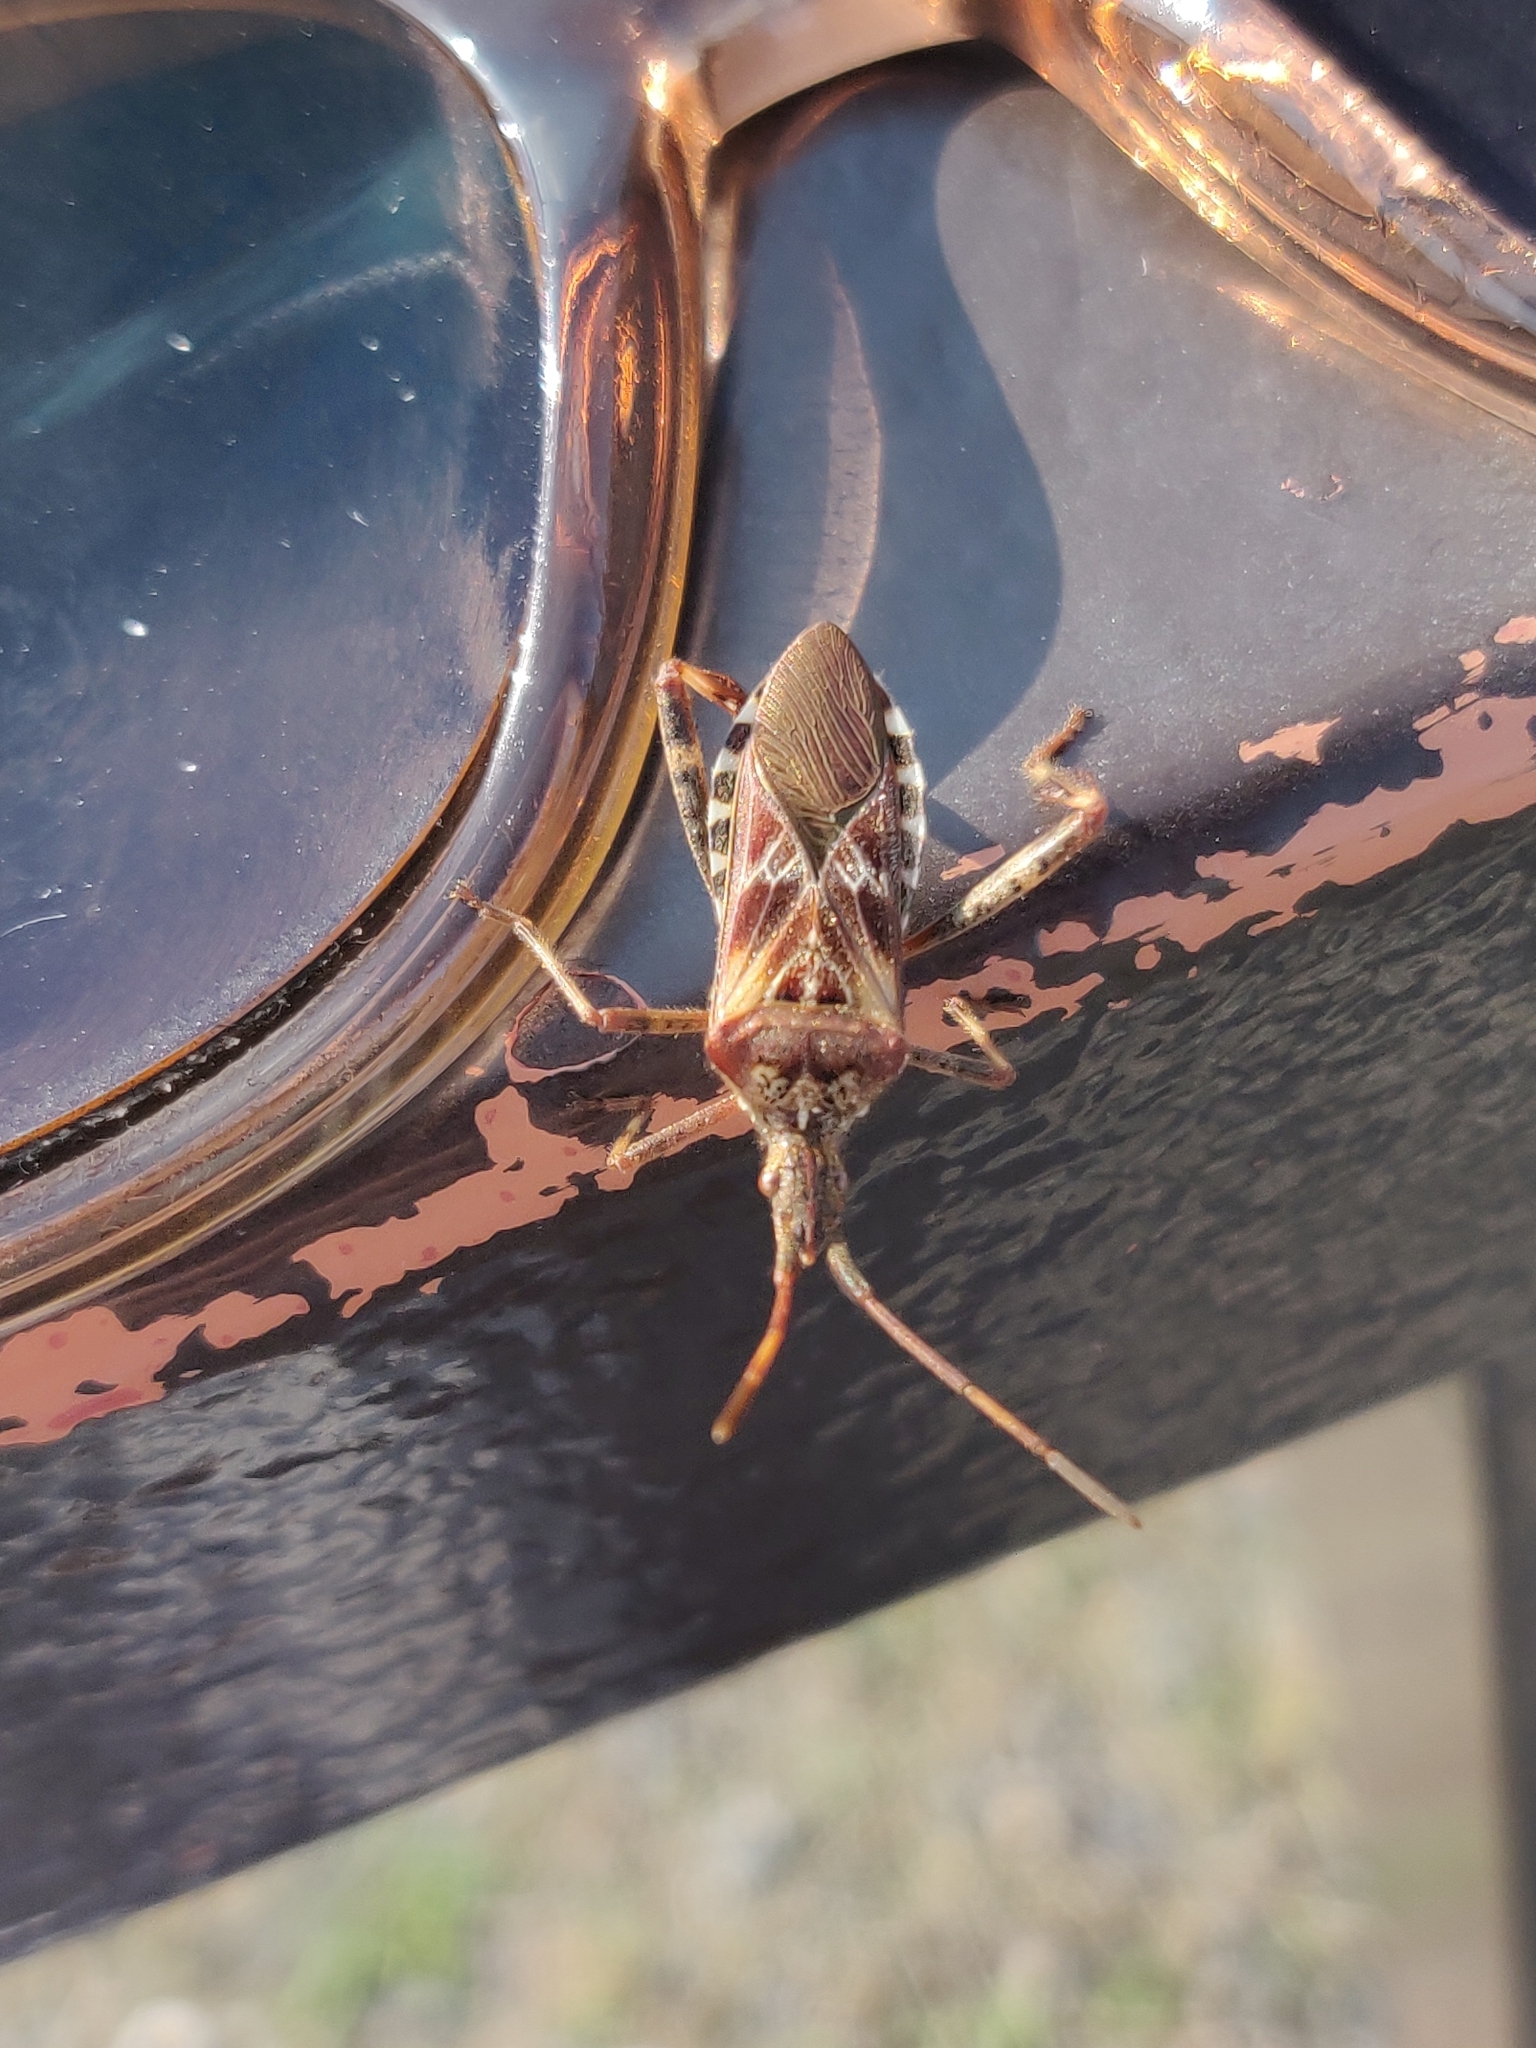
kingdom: Animalia
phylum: Arthropoda
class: Insecta
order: Hemiptera
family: Coreidae
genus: Leptoglossus
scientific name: Leptoglossus occidentalis
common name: Western conifer-seed bug
